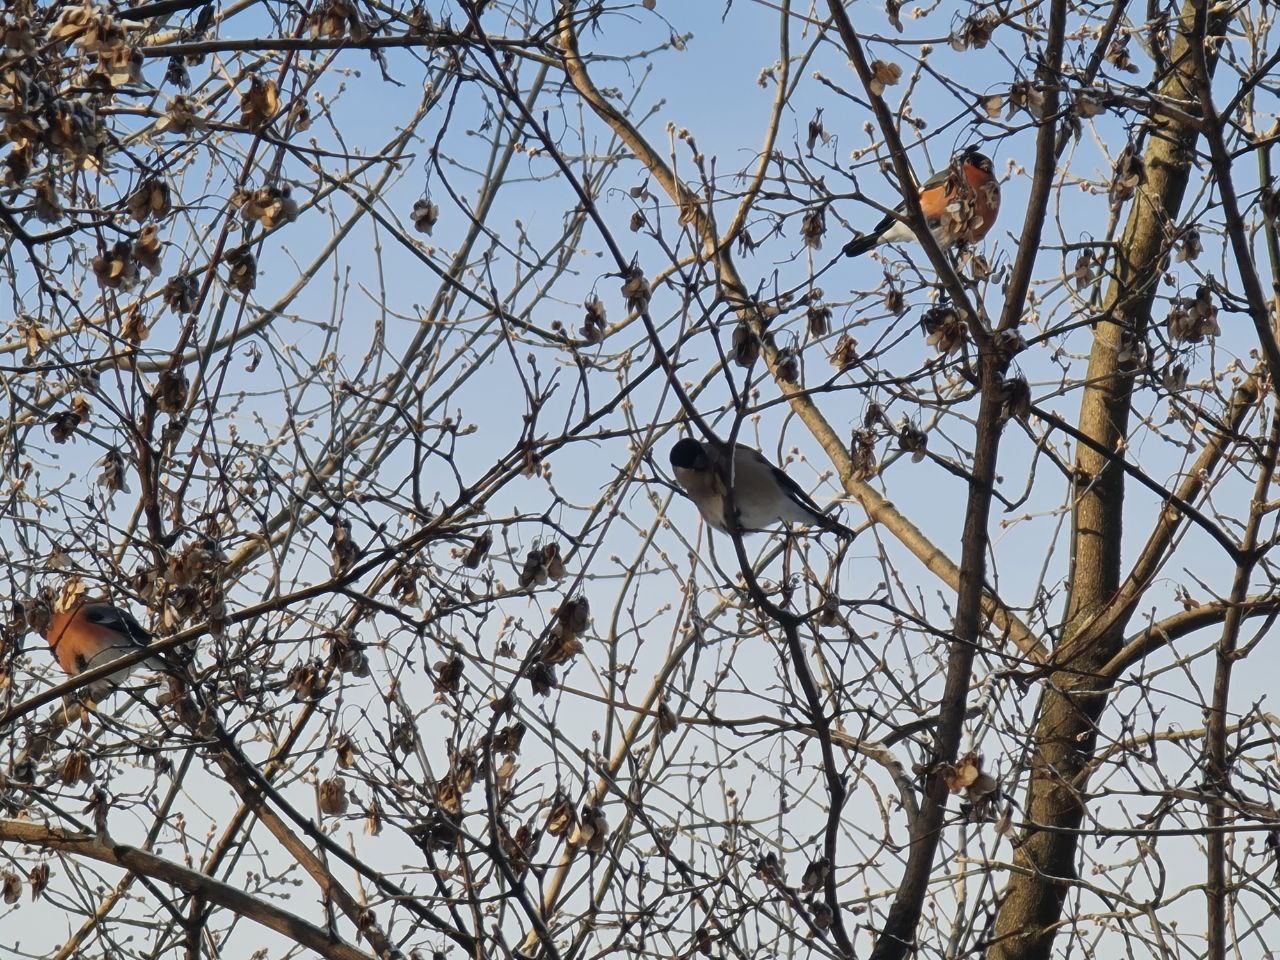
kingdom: Animalia
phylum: Chordata
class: Aves
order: Passeriformes
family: Fringillidae
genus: Pyrrhula
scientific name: Pyrrhula pyrrhula
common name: Eurasian bullfinch
